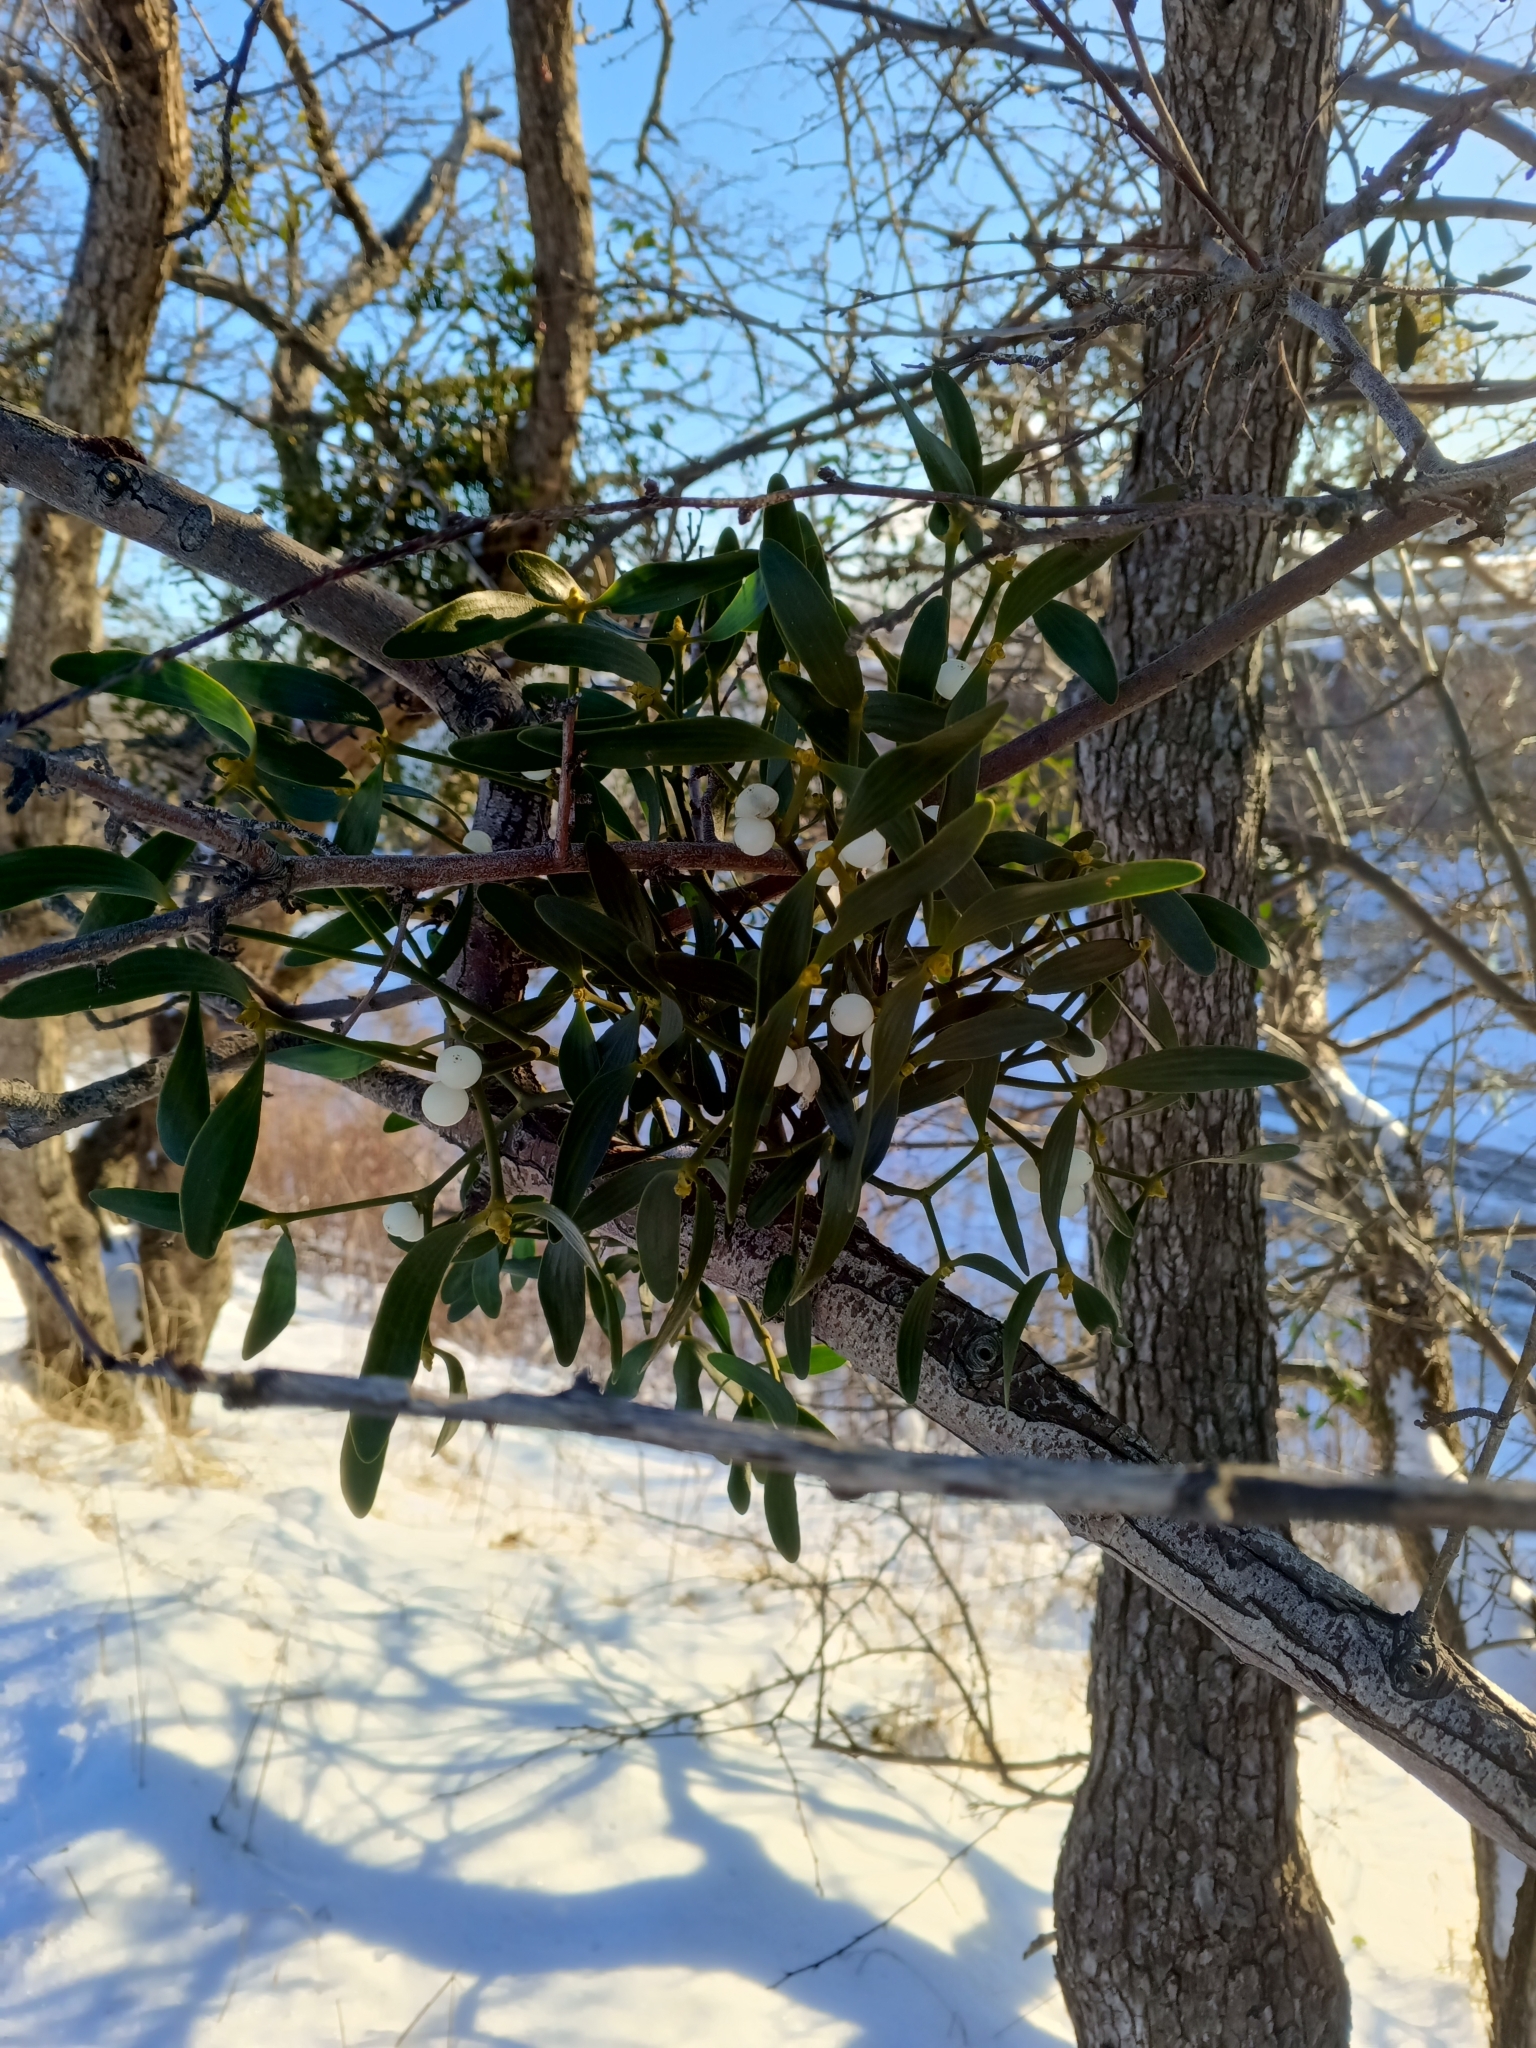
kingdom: Plantae
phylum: Tracheophyta
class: Magnoliopsida
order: Santalales
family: Viscaceae
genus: Viscum
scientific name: Viscum album
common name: Mistletoe
